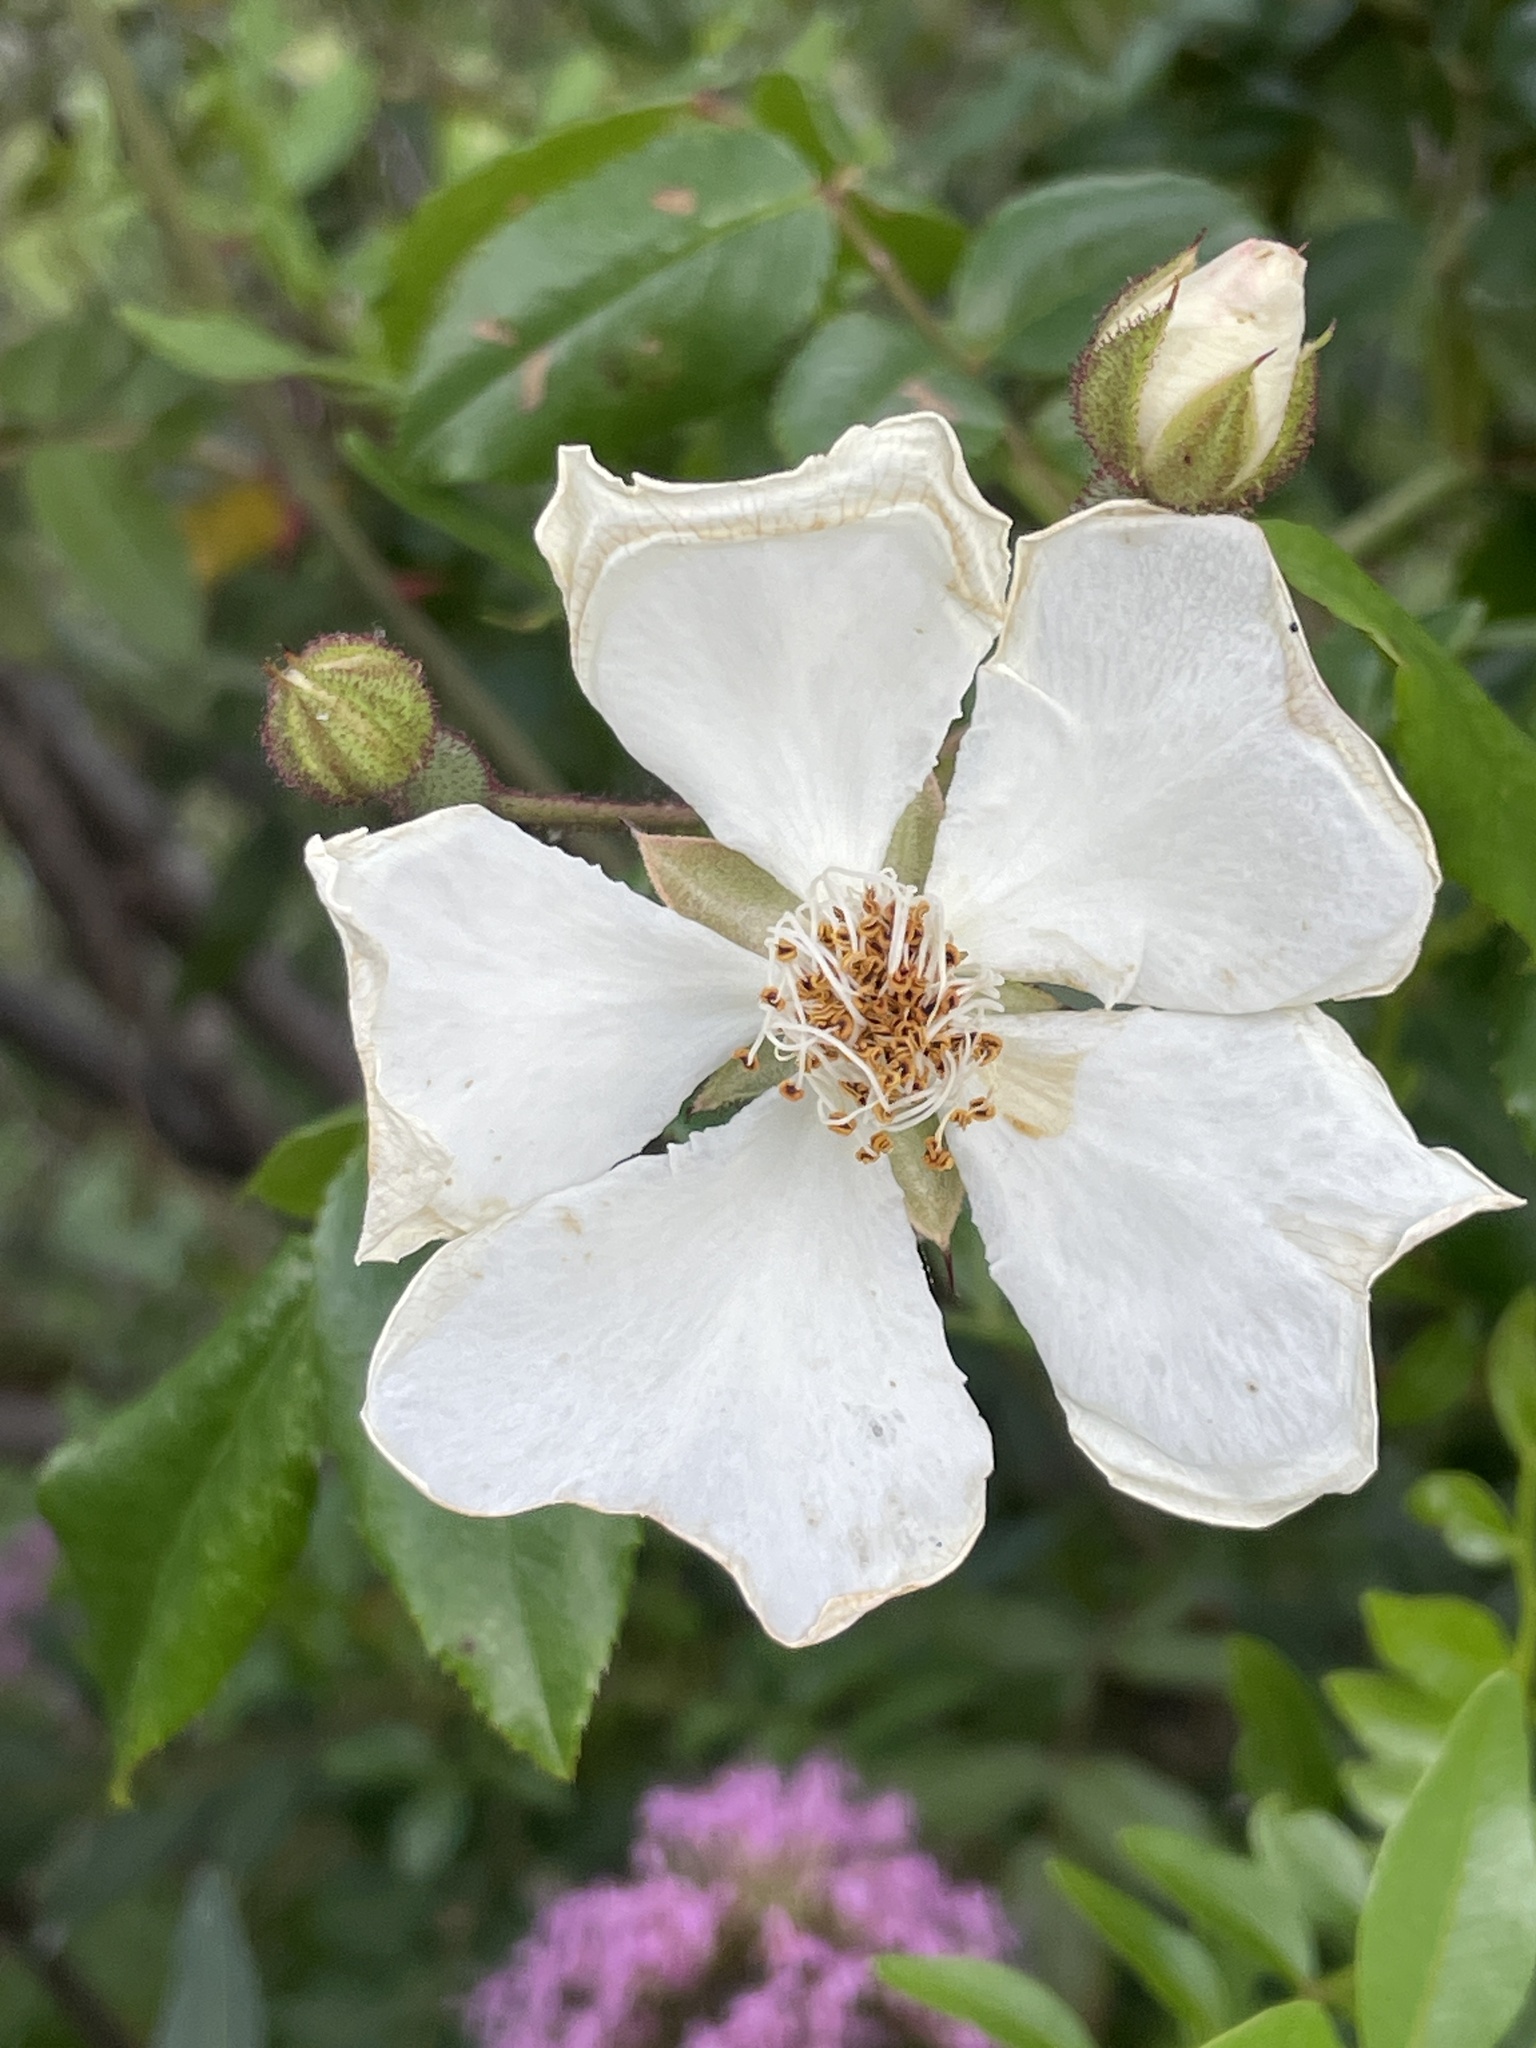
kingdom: Plantae
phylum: Tracheophyta
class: Magnoliopsida
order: Rosales
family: Rosaceae
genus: Rosa
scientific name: Rosa sempervirens
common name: Evergreen rose
